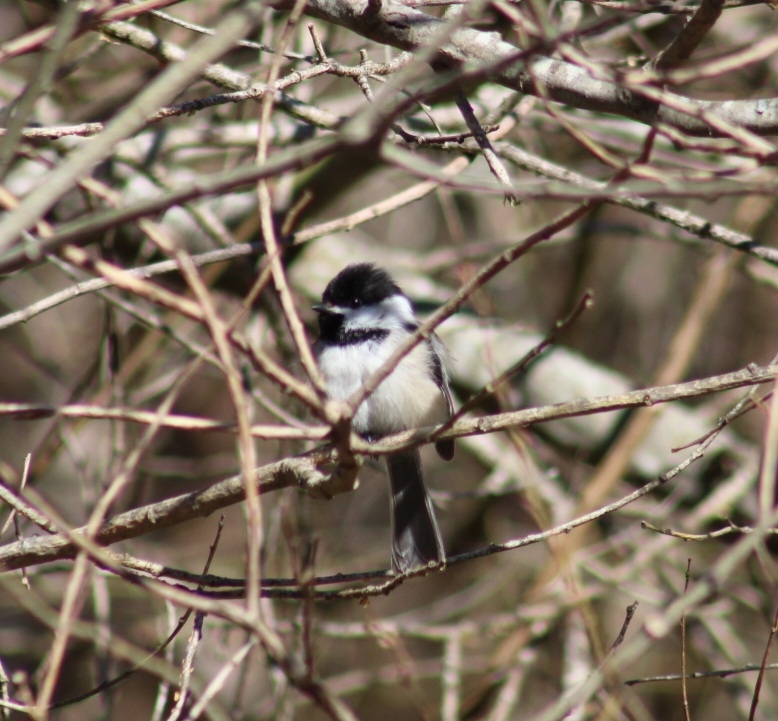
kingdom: Animalia
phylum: Chordata
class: Aves
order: Passeriformes
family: Paridae
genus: Poecile
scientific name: Poecile atricapillus
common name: Black-capped chickadee
